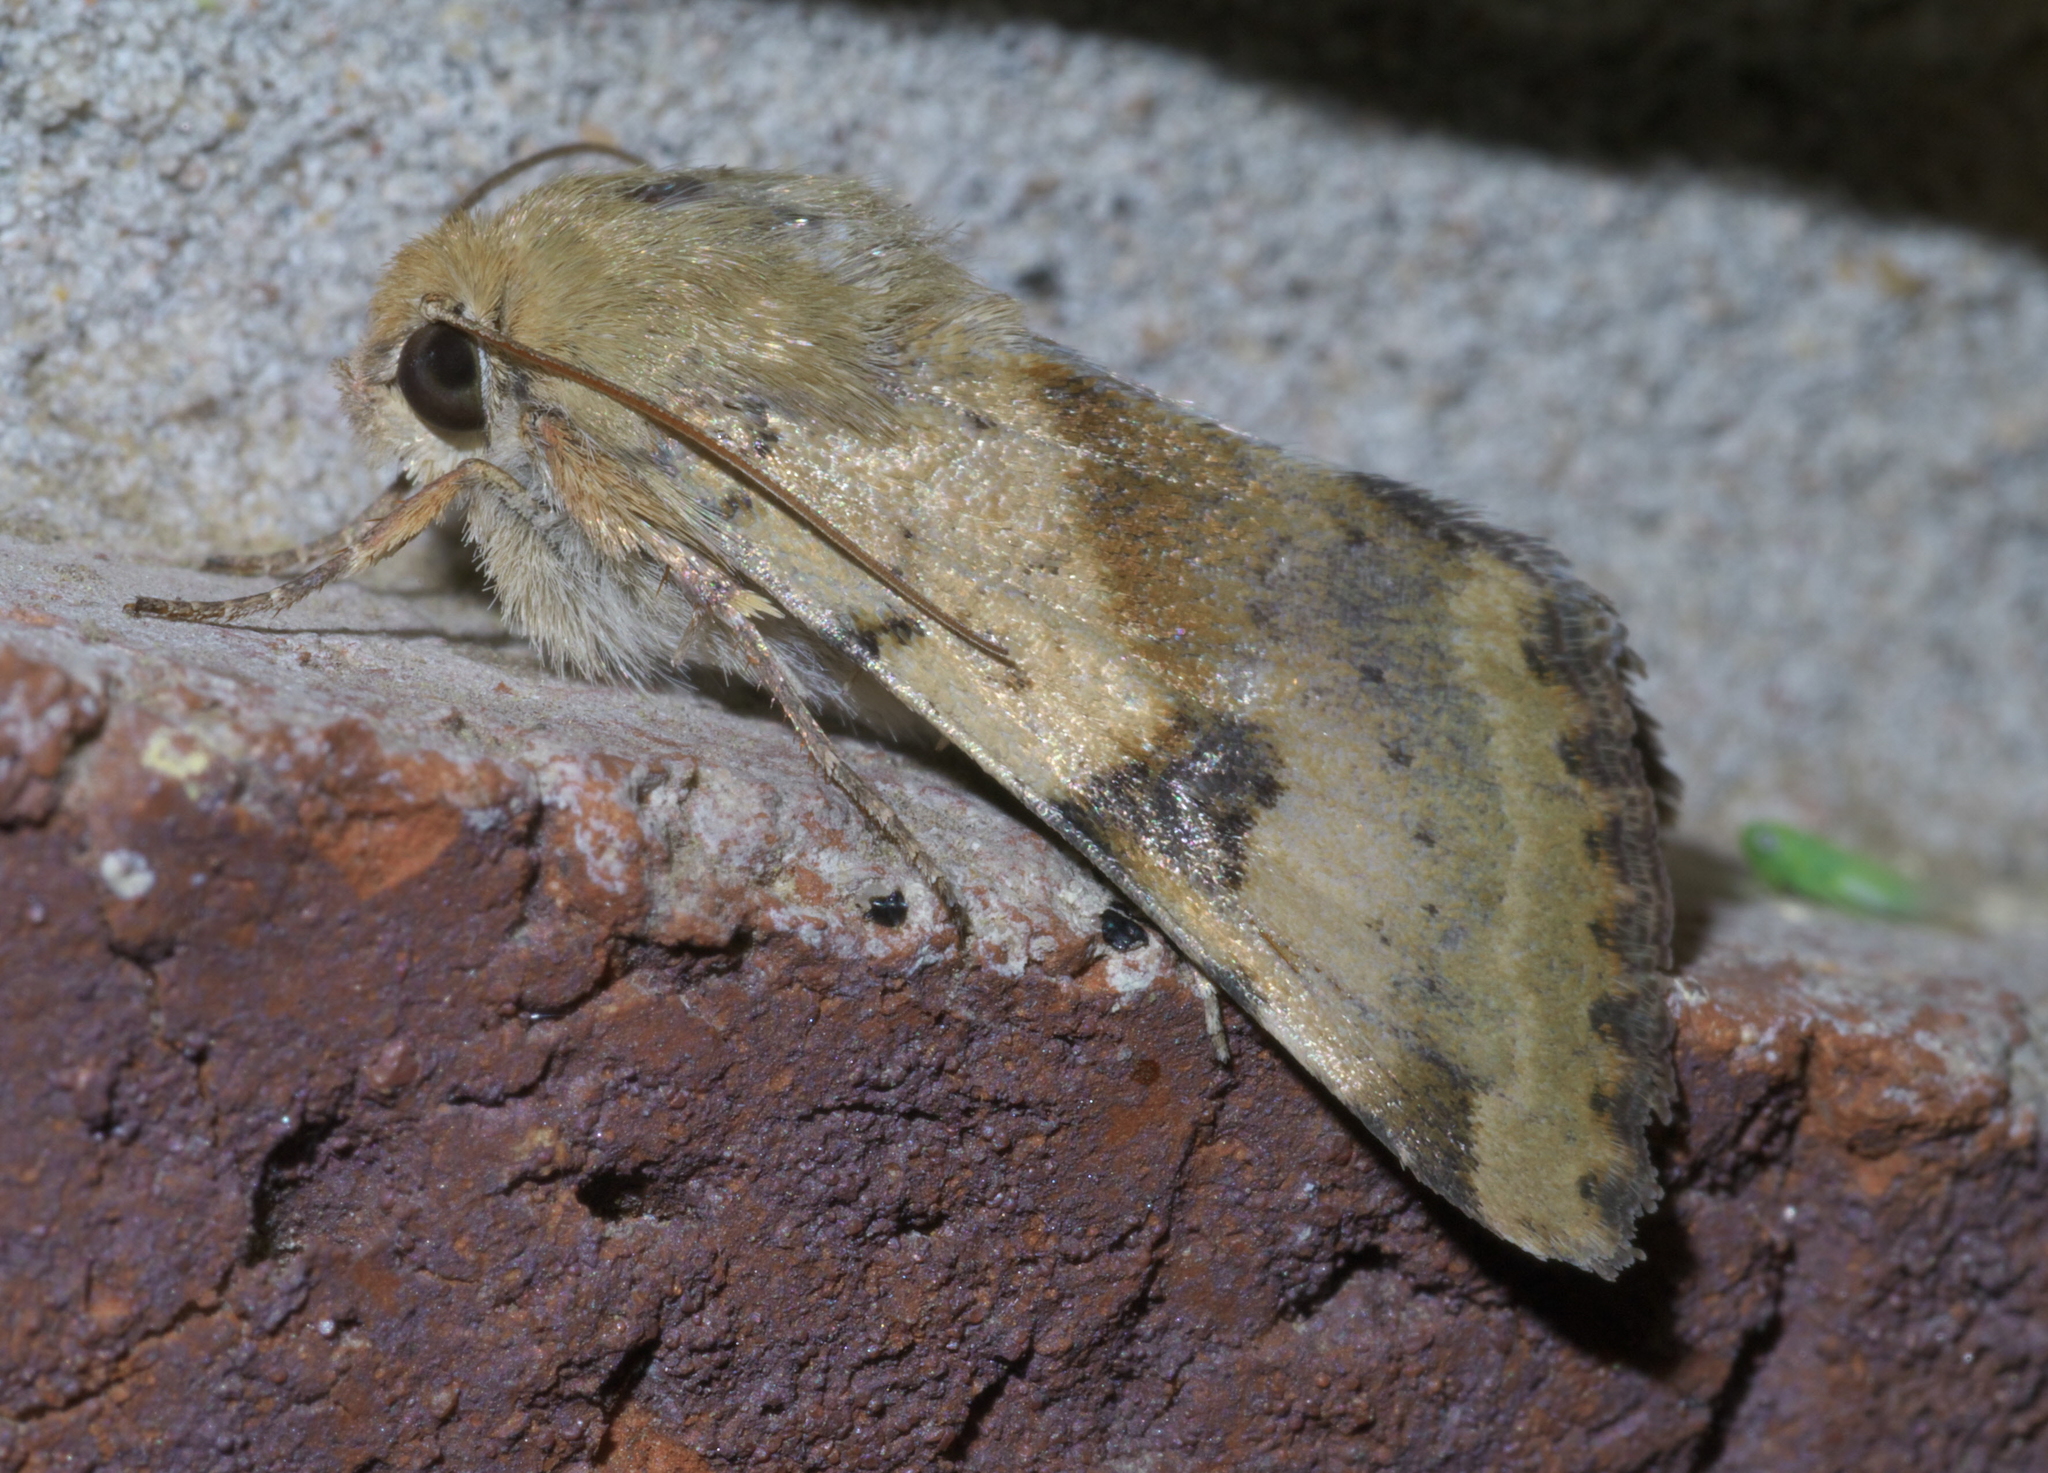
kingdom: Animalia
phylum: Arthropoda
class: Insecta
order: Lepidoptera
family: Noctuidae
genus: Heliothis
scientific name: Heliothis phloxiphaga
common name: Darker spotted straw moth
